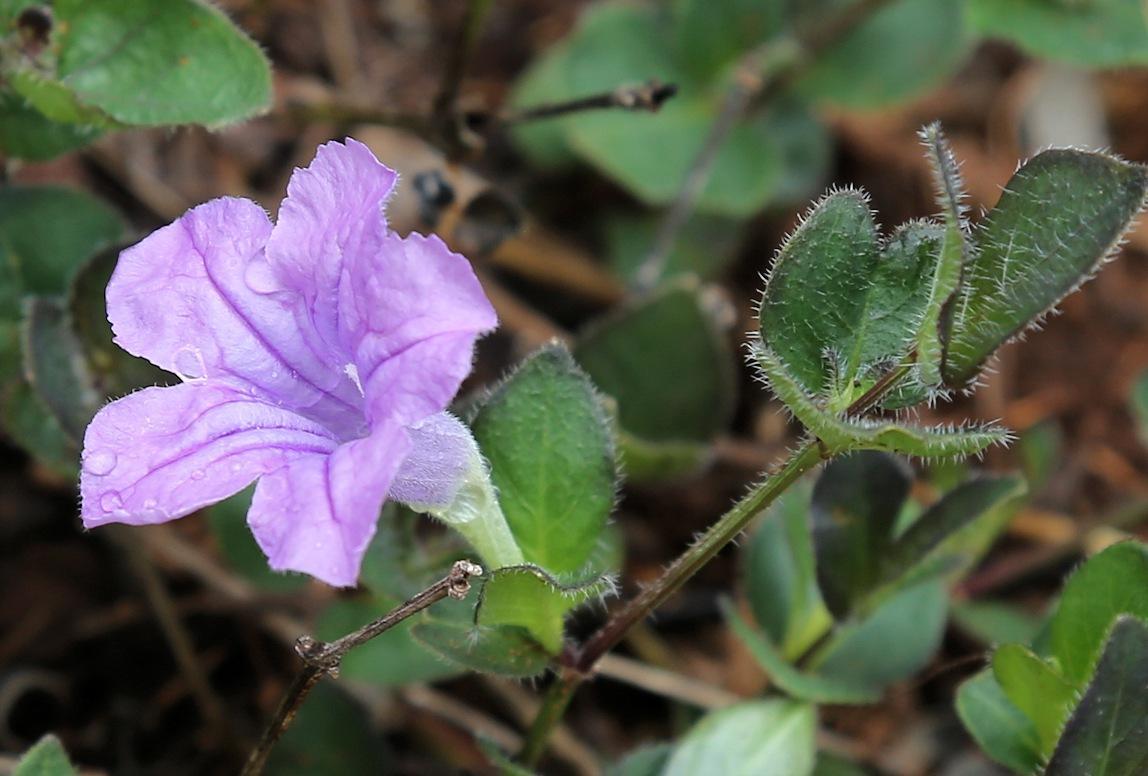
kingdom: Plantae
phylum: Tracheophyta
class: Magnoliopsida
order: Lamiales
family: Acanthaceae
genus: Ruellia
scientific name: Ruellia cordata
